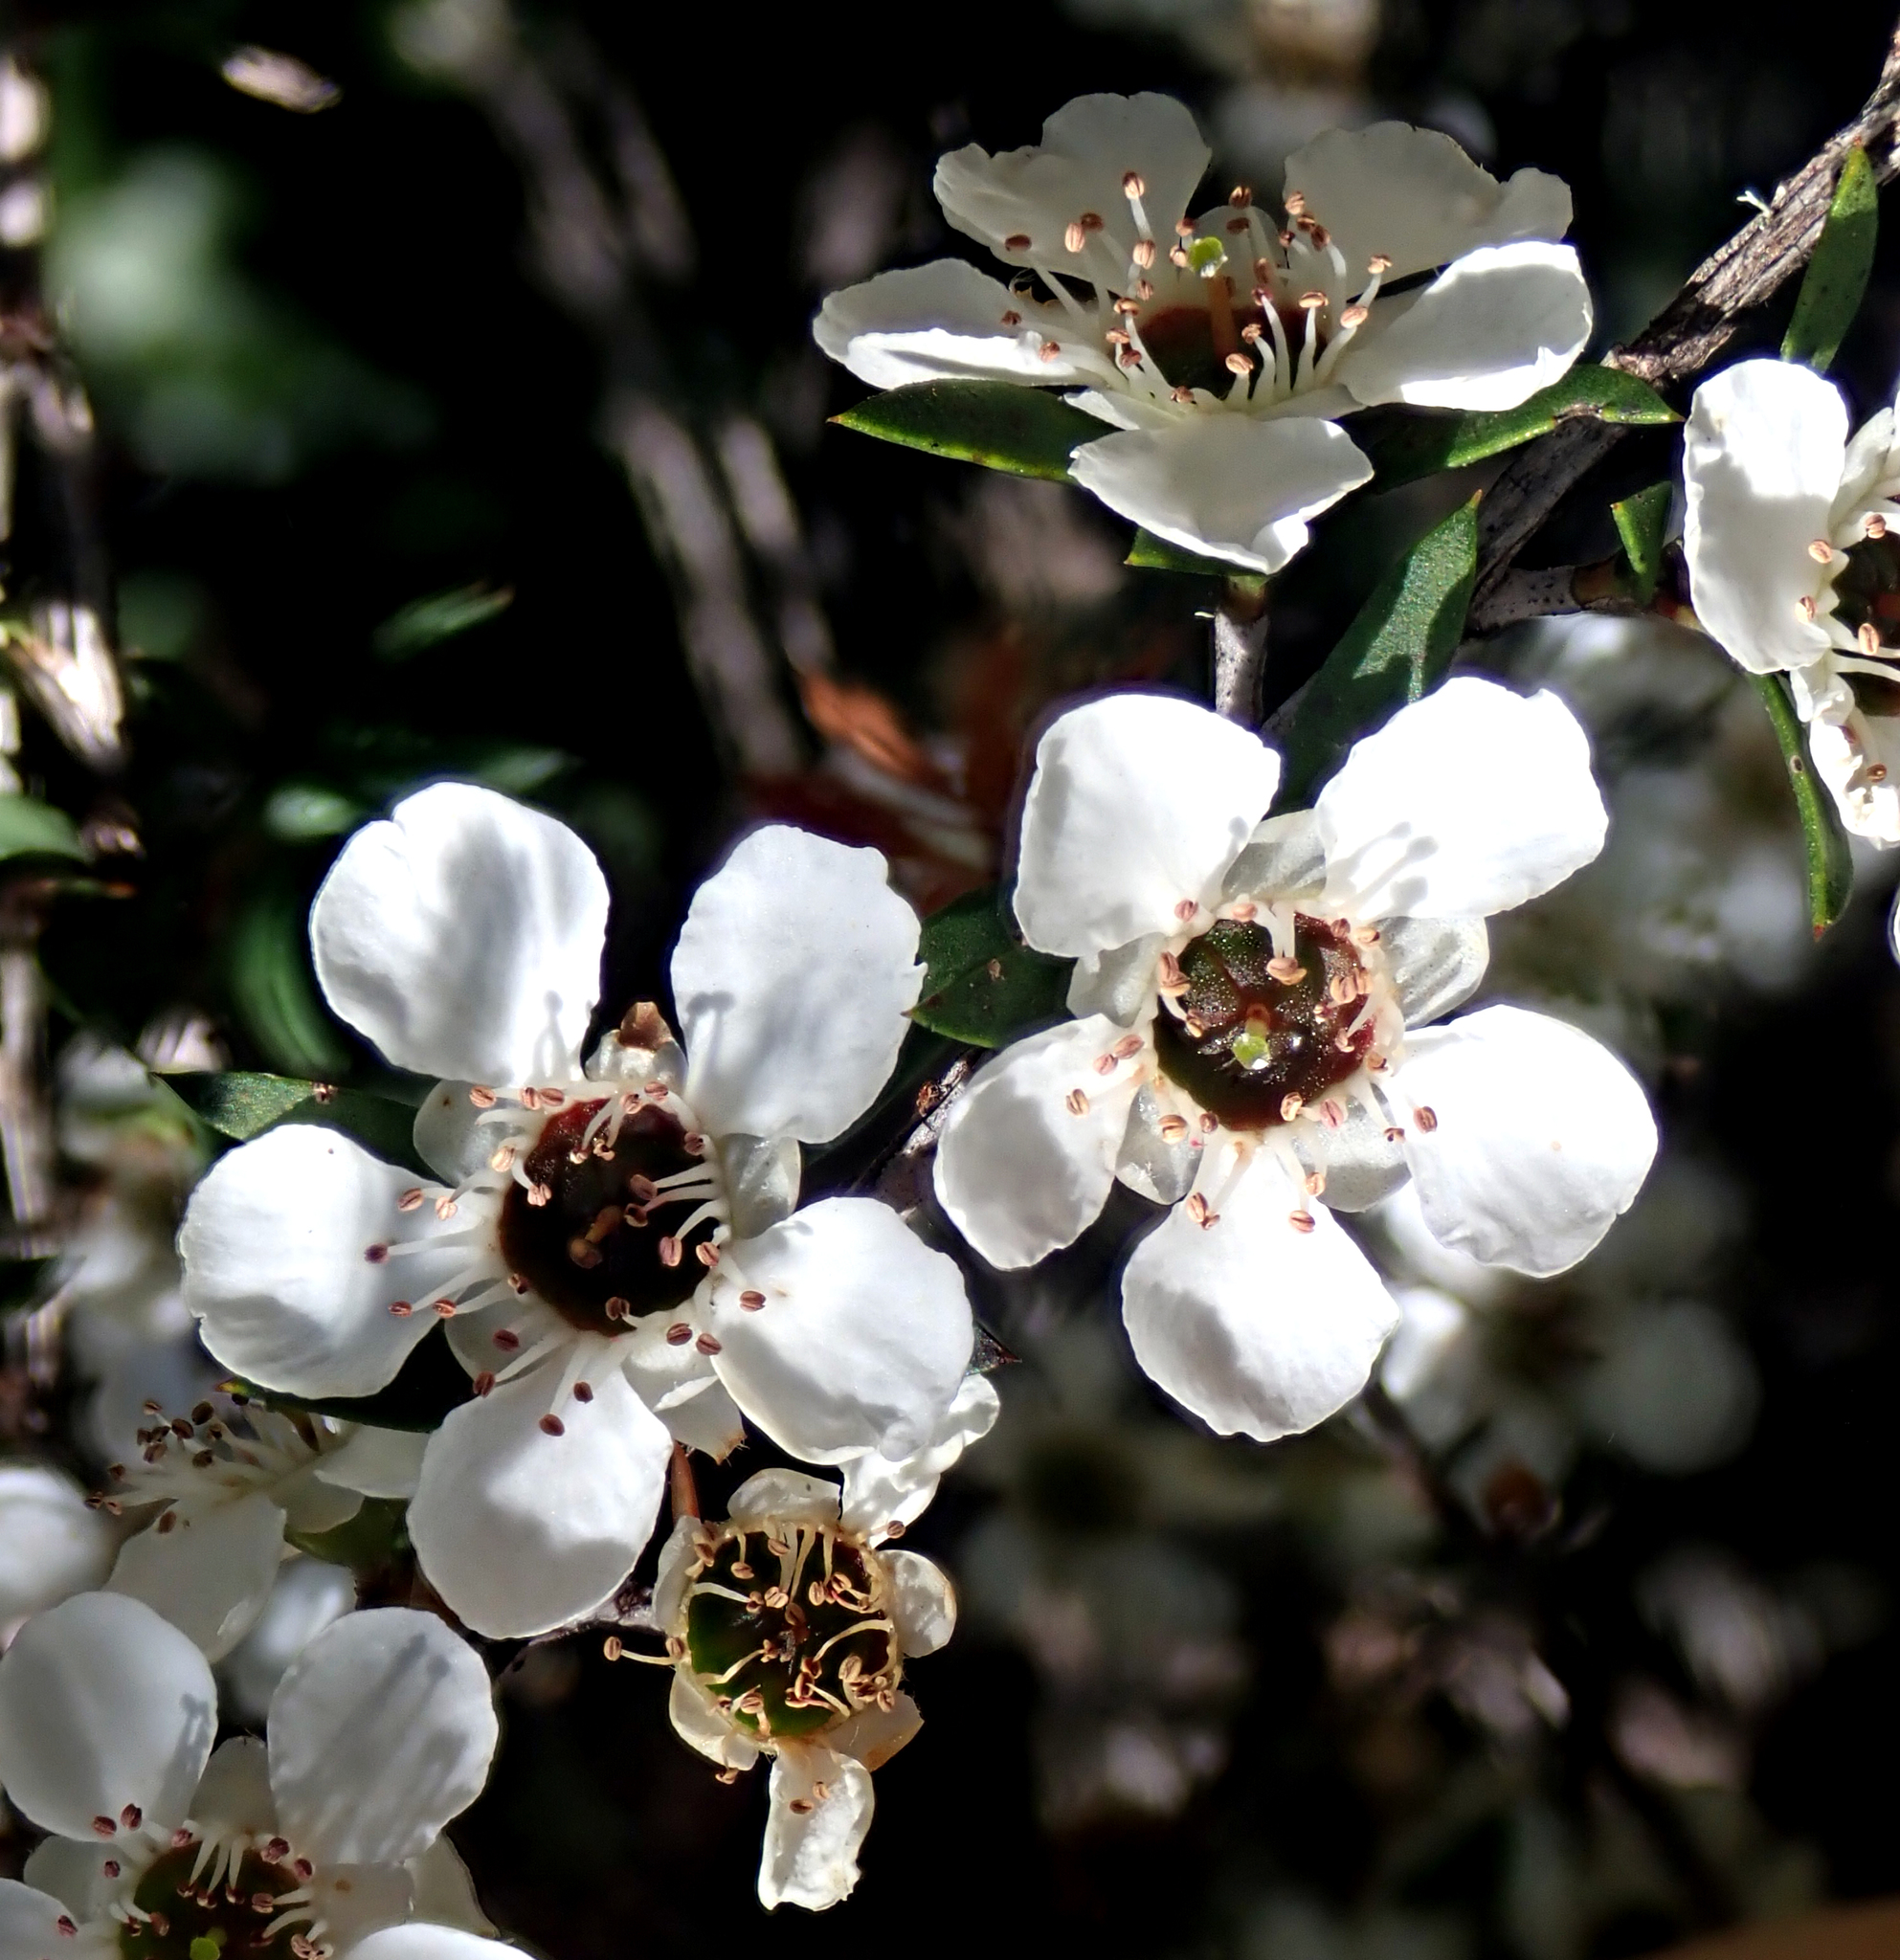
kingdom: Plantae
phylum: Tracheophyta
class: Magnoliopsida
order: Myrtales
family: Myrtaceae
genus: Leptospermum
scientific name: Leptospermum scoparium
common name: Broom tea-tree
